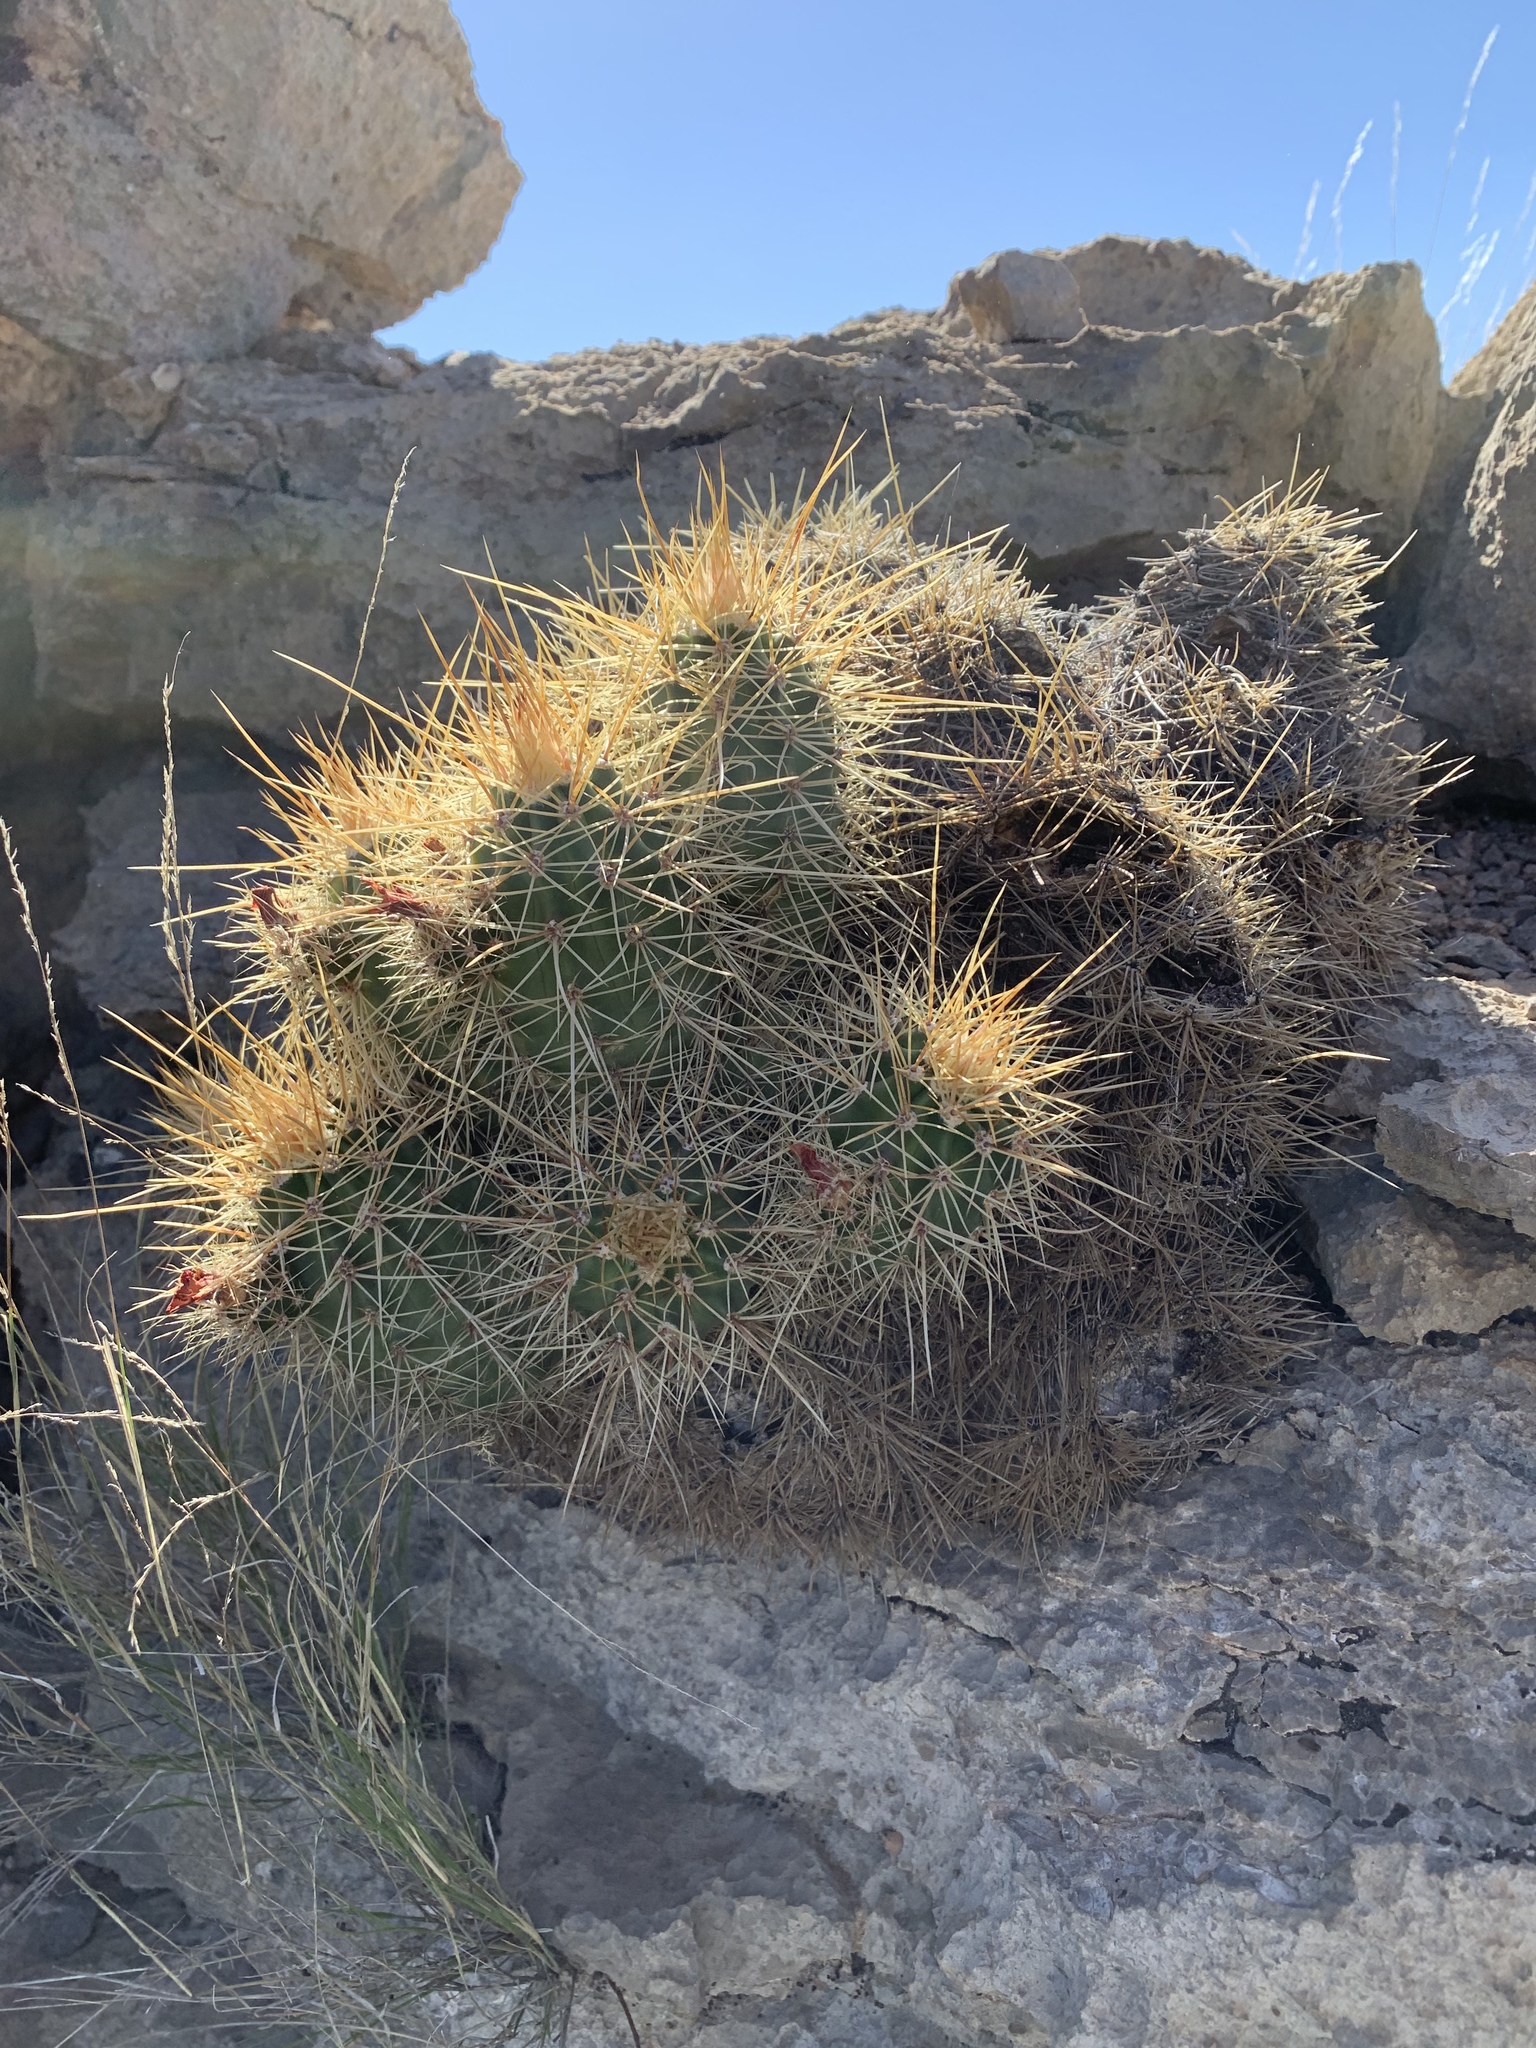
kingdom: Plantae
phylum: Tracheophyta
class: Magnoliopsida
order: Caryophyllales
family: Cactaceae
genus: Echinocereus
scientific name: Echinocereus coccineus
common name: Scarlet hedgehog cactus
